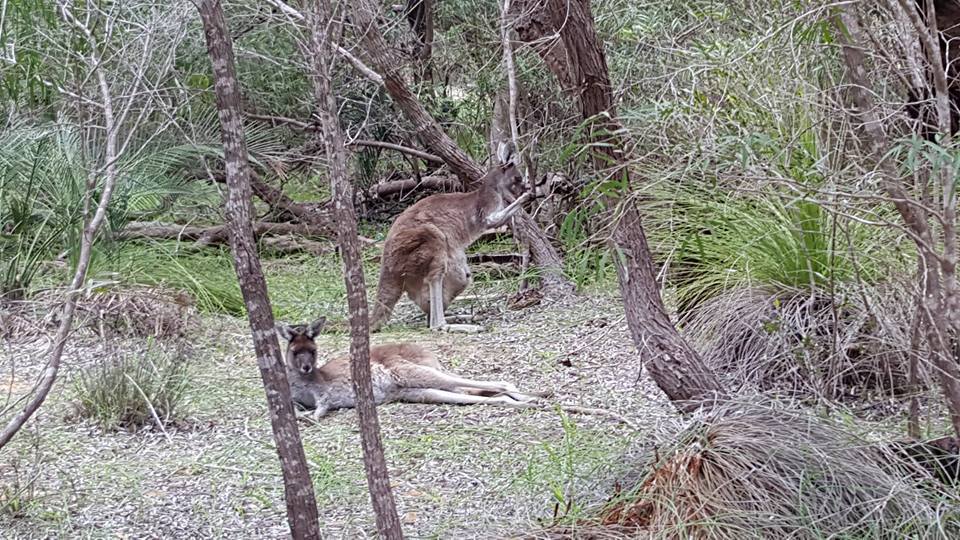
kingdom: Animalia
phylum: Chordata
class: Mammalia
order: Diprotodontia
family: Macropodidae
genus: Macropus
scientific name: Macropus fuliginosus
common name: Western grey kangaroo
